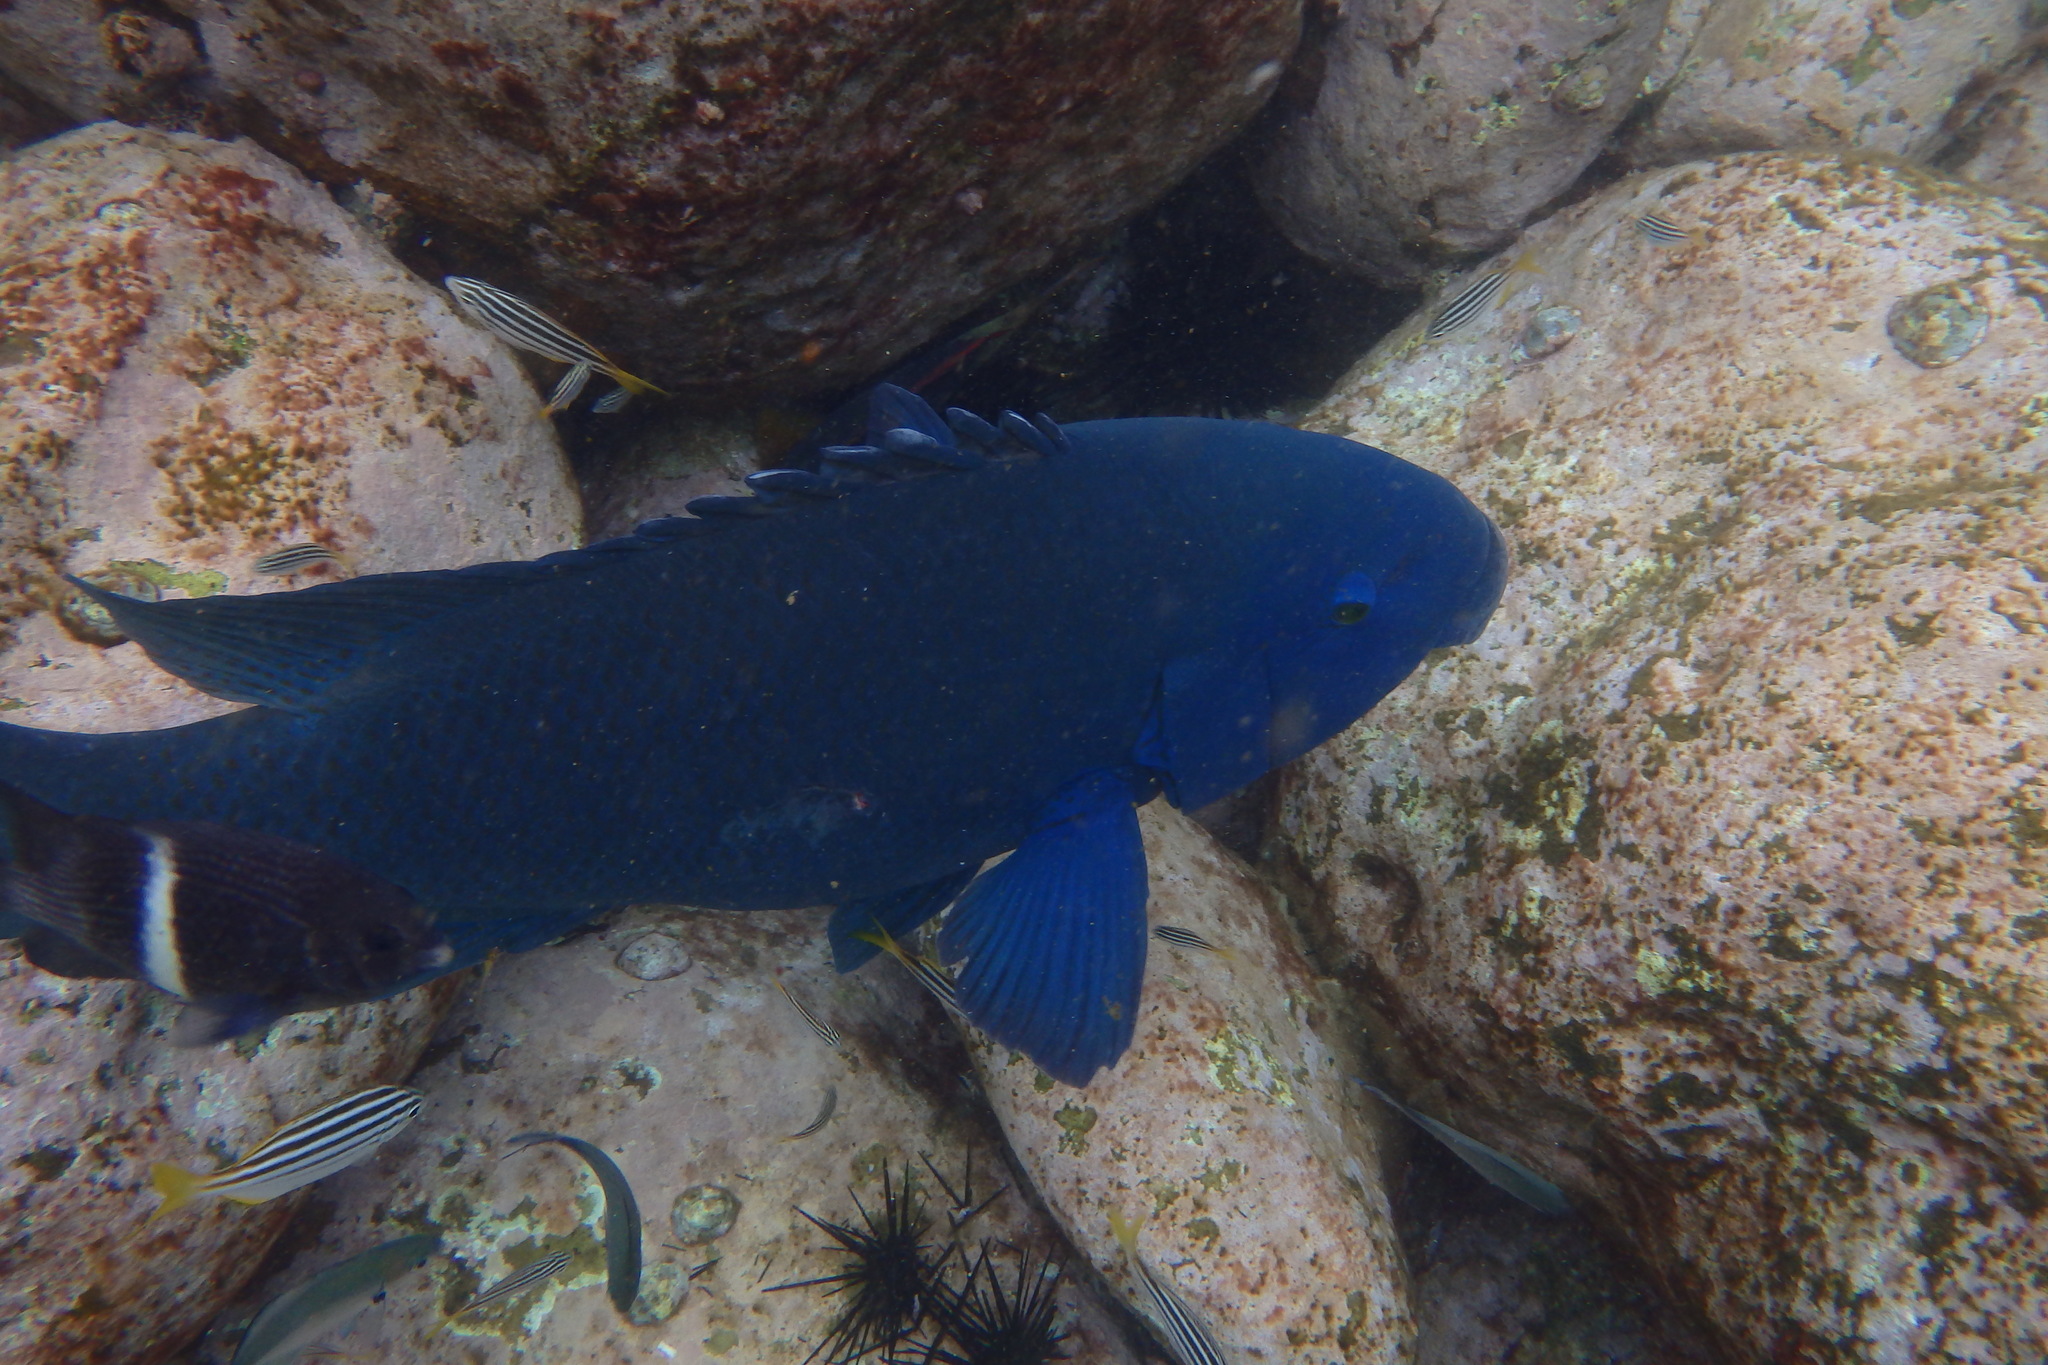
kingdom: Animalia
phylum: Chordata
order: Perciformes
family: Labridae
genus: Achoerodus
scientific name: Achoerodus viridis
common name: Brown groper
